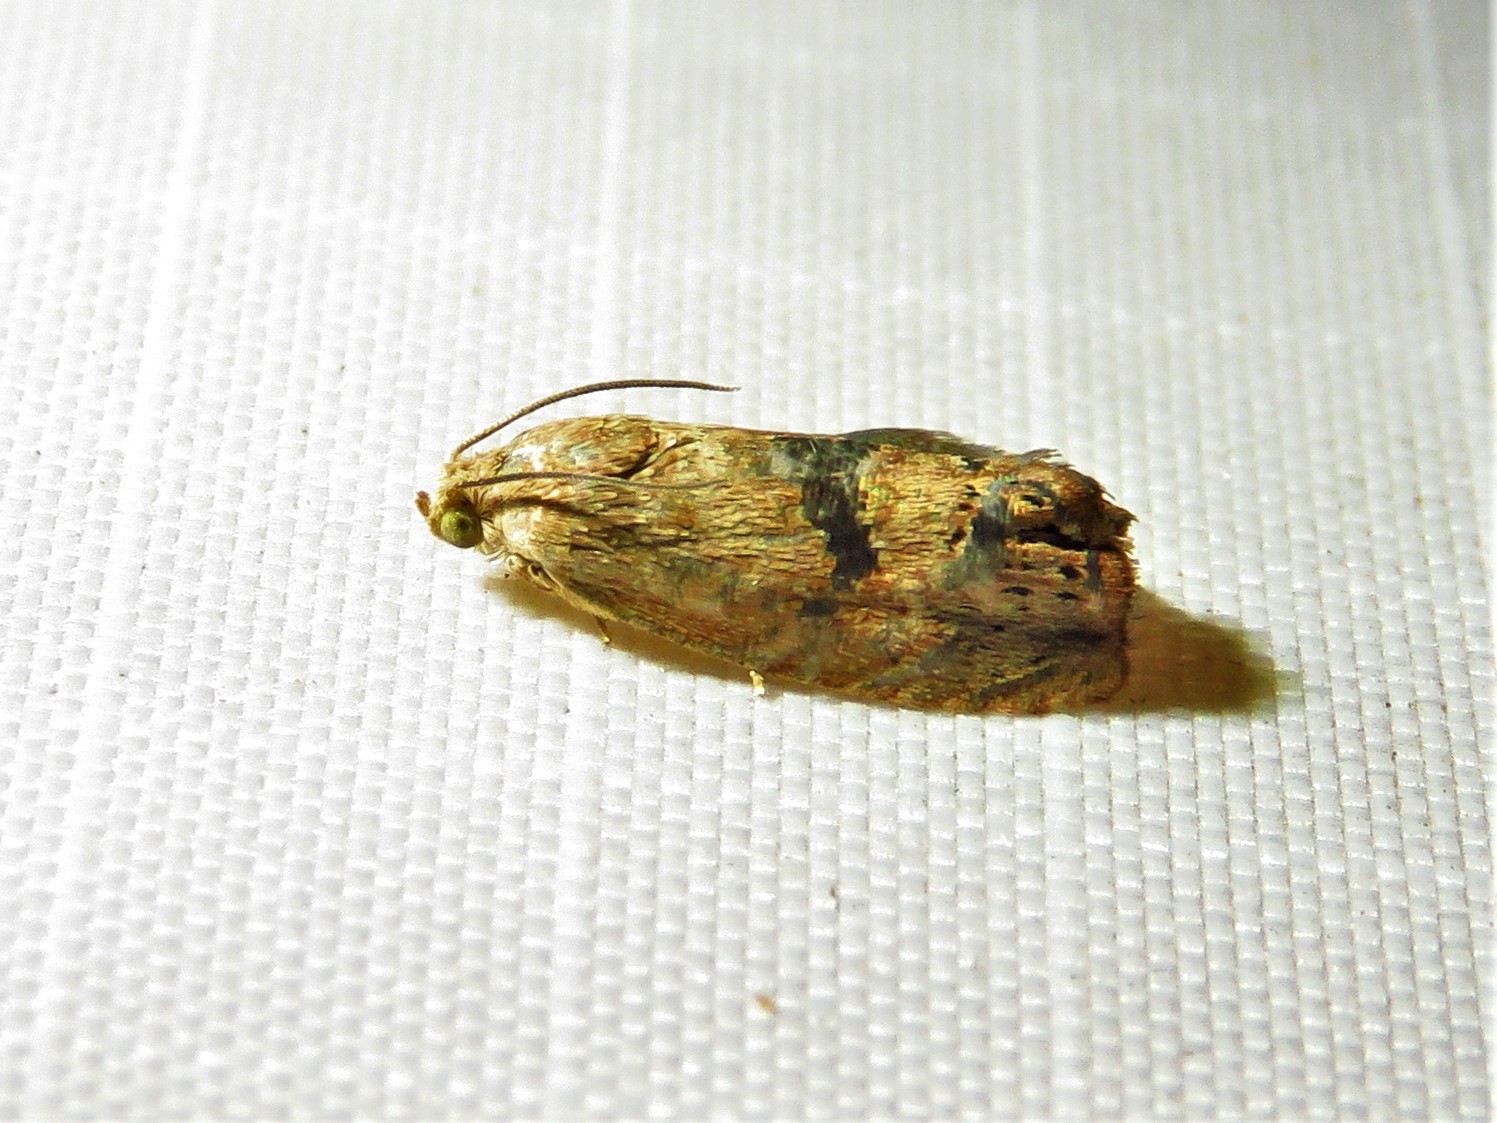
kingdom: Animalia
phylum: Arthropoda
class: Insecta
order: Lepidoptera
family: Tortricidae
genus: Cydia
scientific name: Cydia latiferreana
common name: Filbertworm moth
